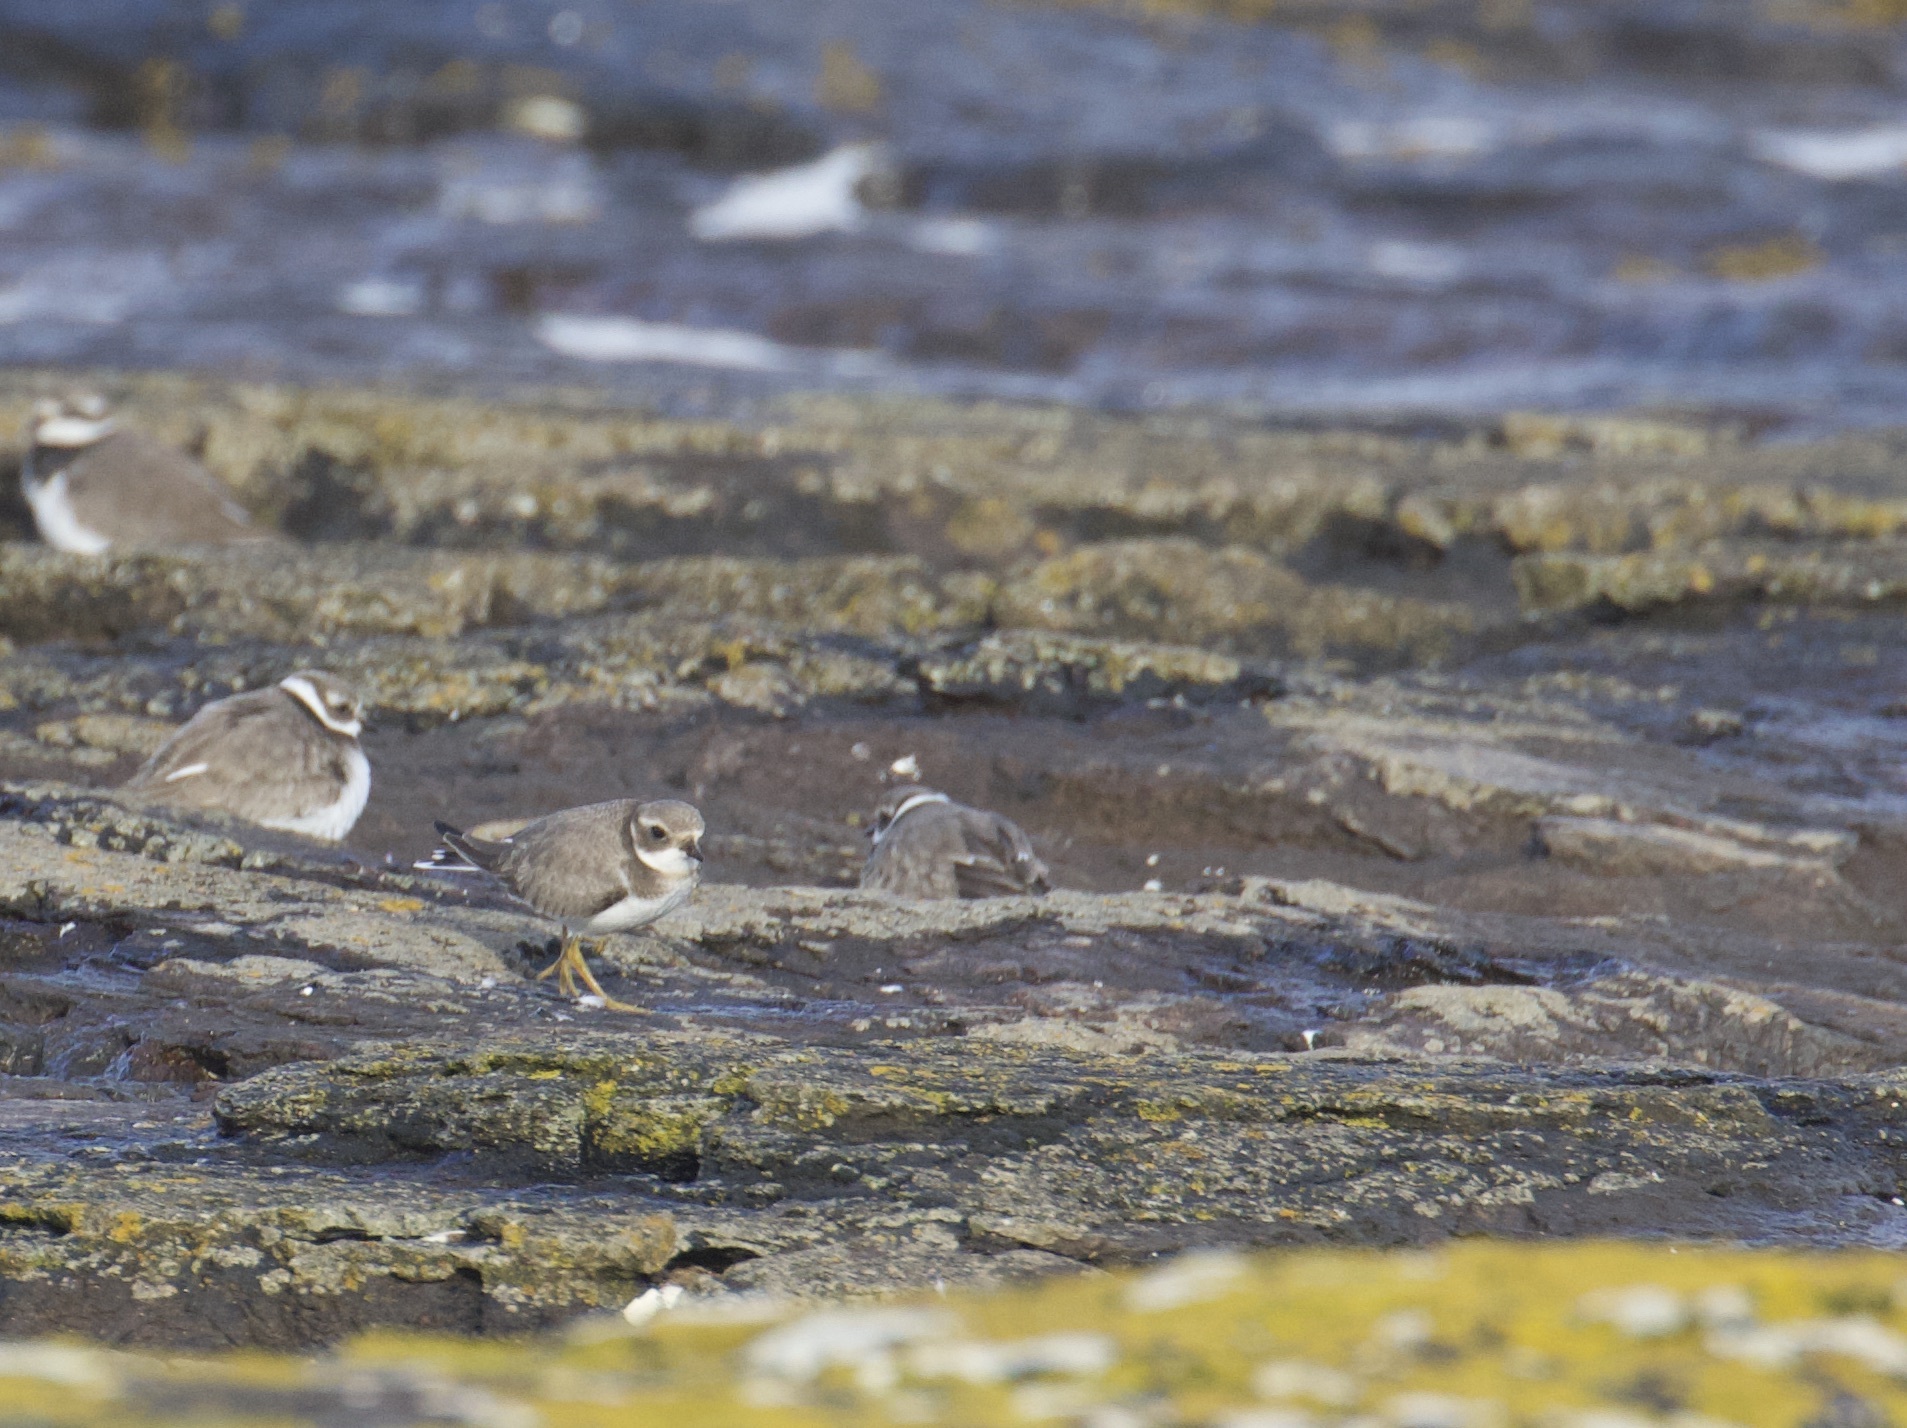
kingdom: Animalia
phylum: Chordata
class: Aves
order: Charadriiformes
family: Charadriidae
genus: Charadrius
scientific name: Charadrius hiaticula
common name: Common ringed plover
